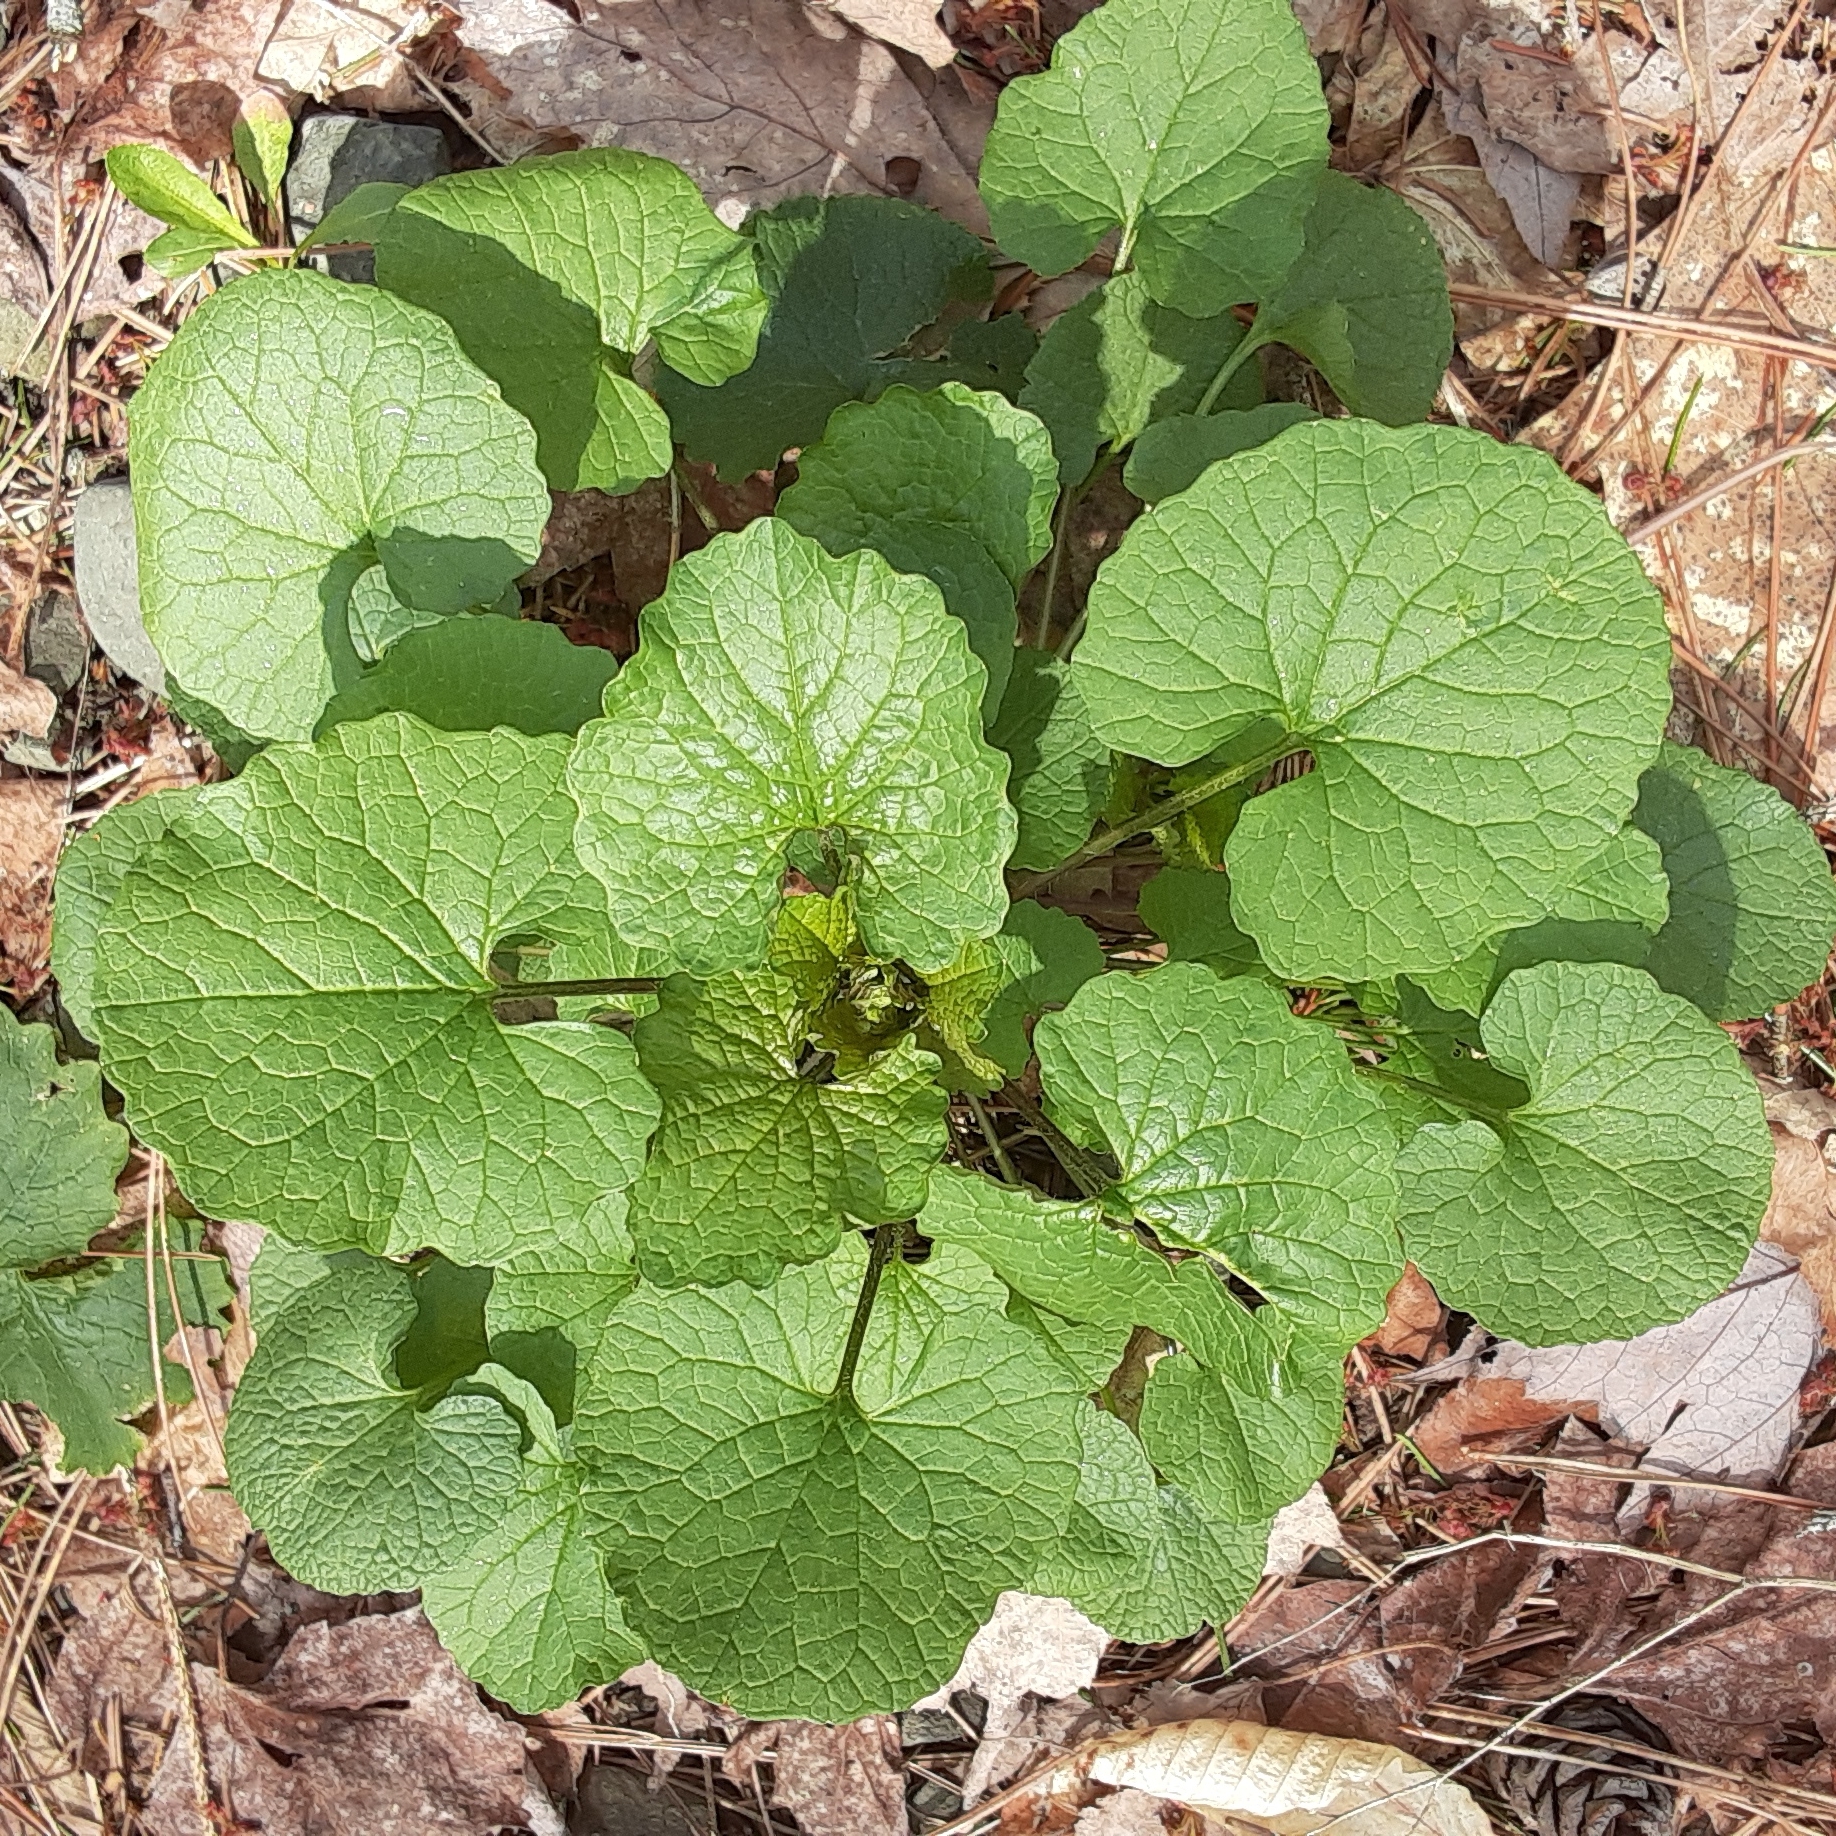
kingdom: Plantae
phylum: Tracheophyta
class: Magnoliopsida
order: Brassicales
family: Brassicaceae
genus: Alliaria
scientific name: Alliaria petiolata
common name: Garlic mustard
